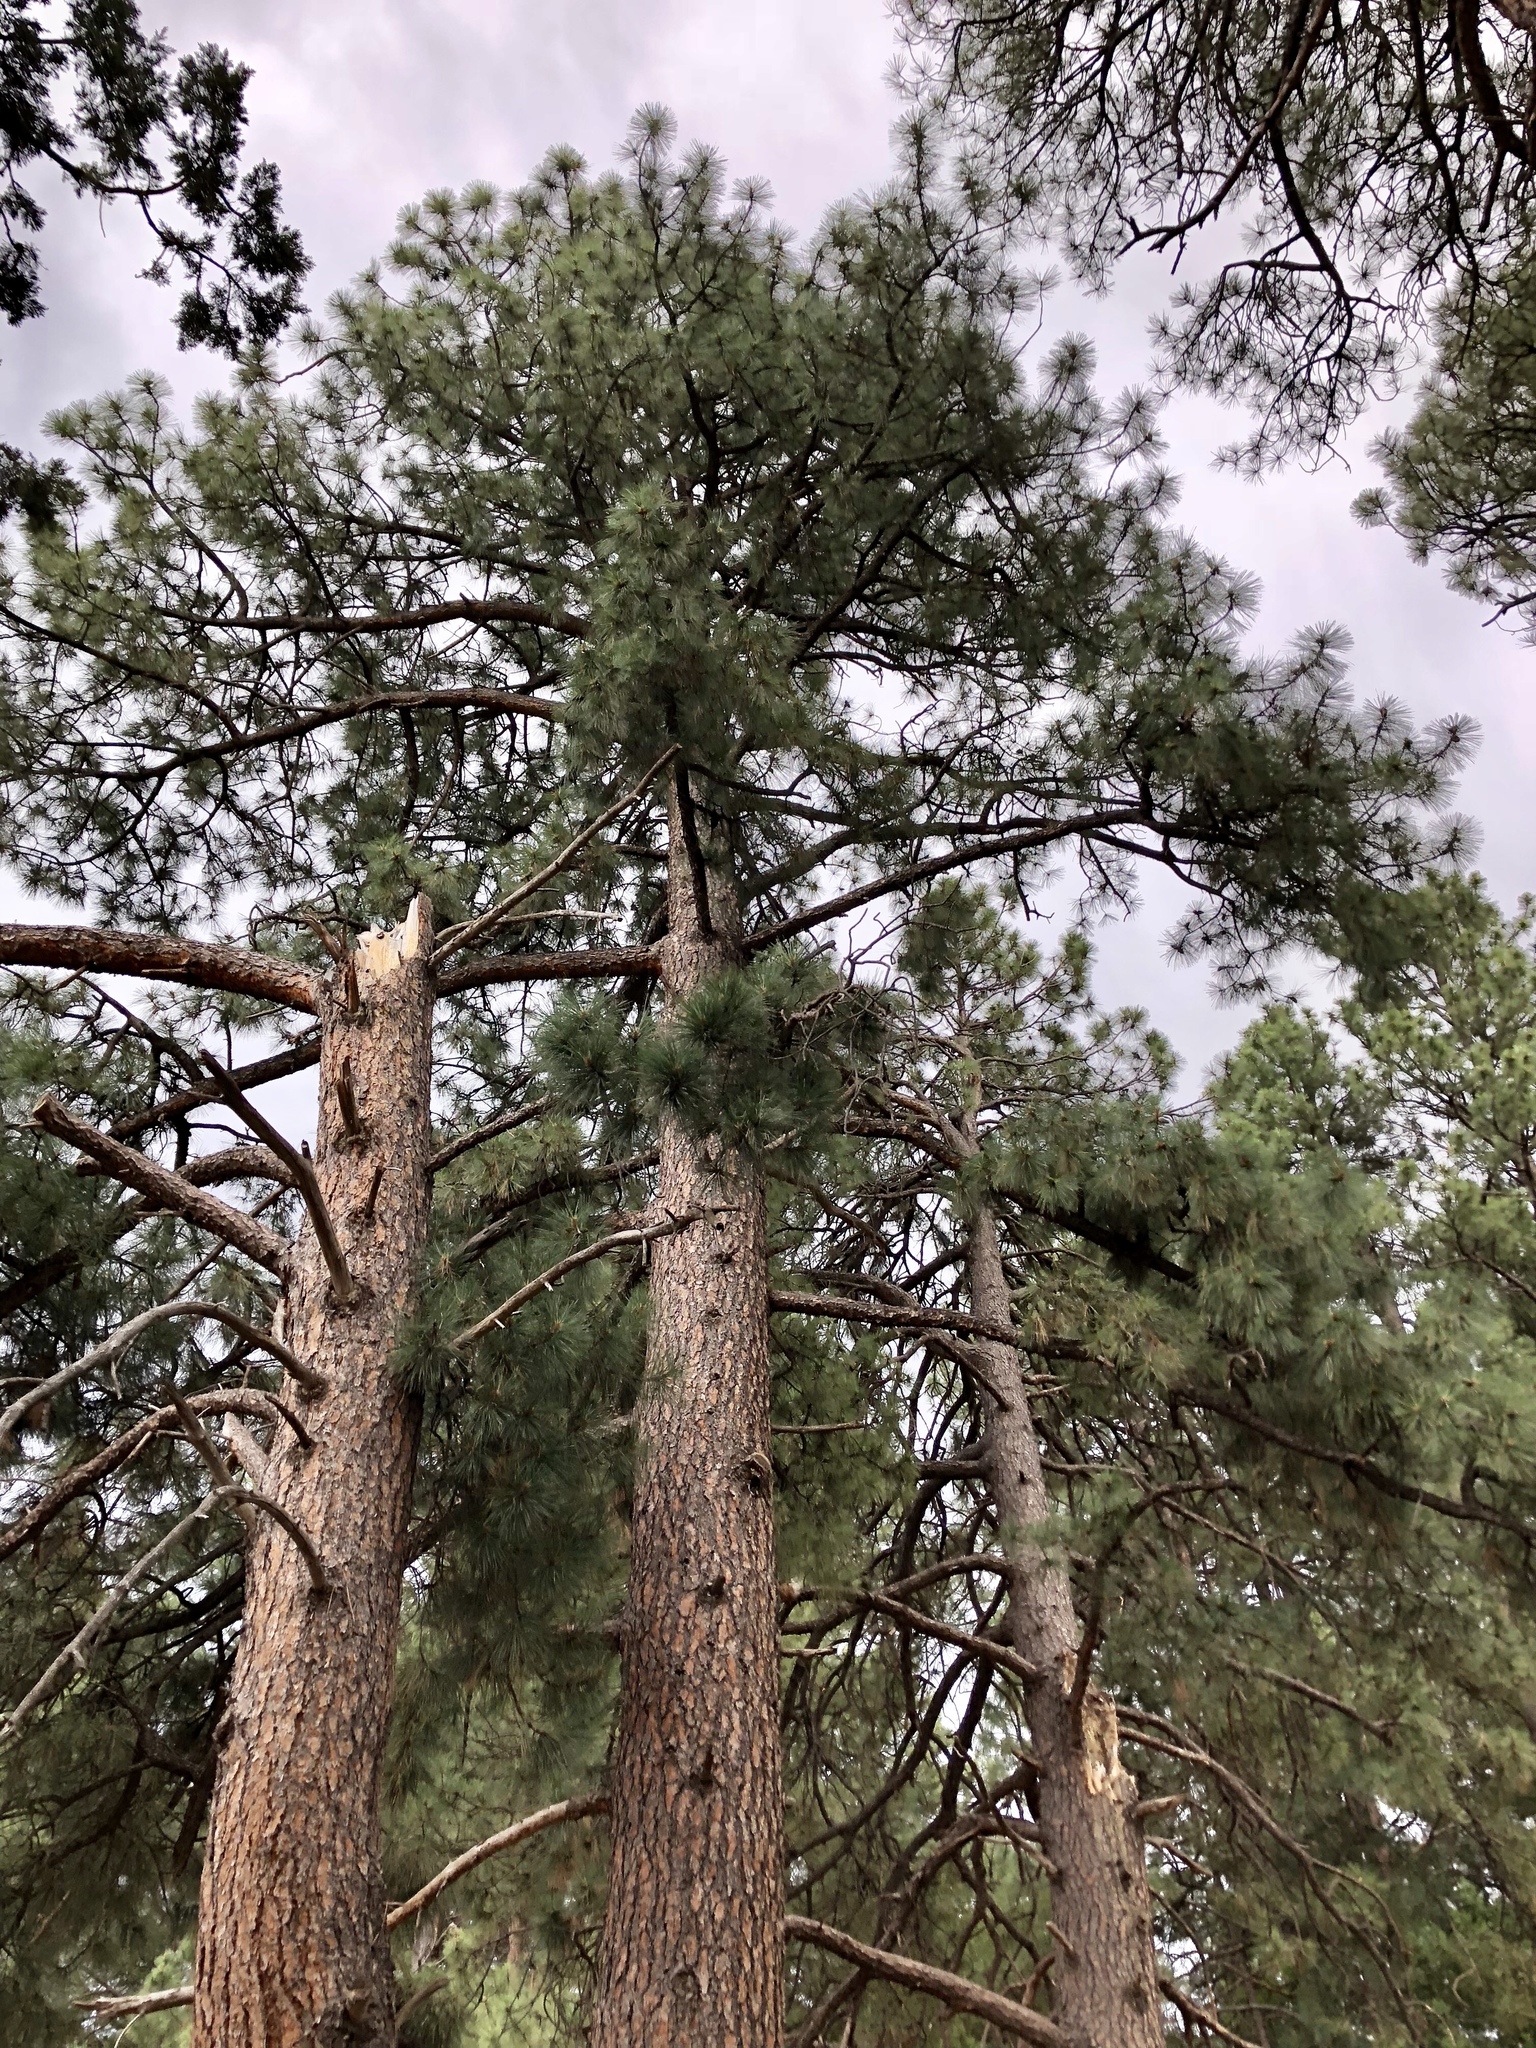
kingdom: Plantae
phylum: Tracheophyta
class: Pinopsida
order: Pinales
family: Pinaceae
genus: Pinus
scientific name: Pinus ponderosa
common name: Western yellow-pine
